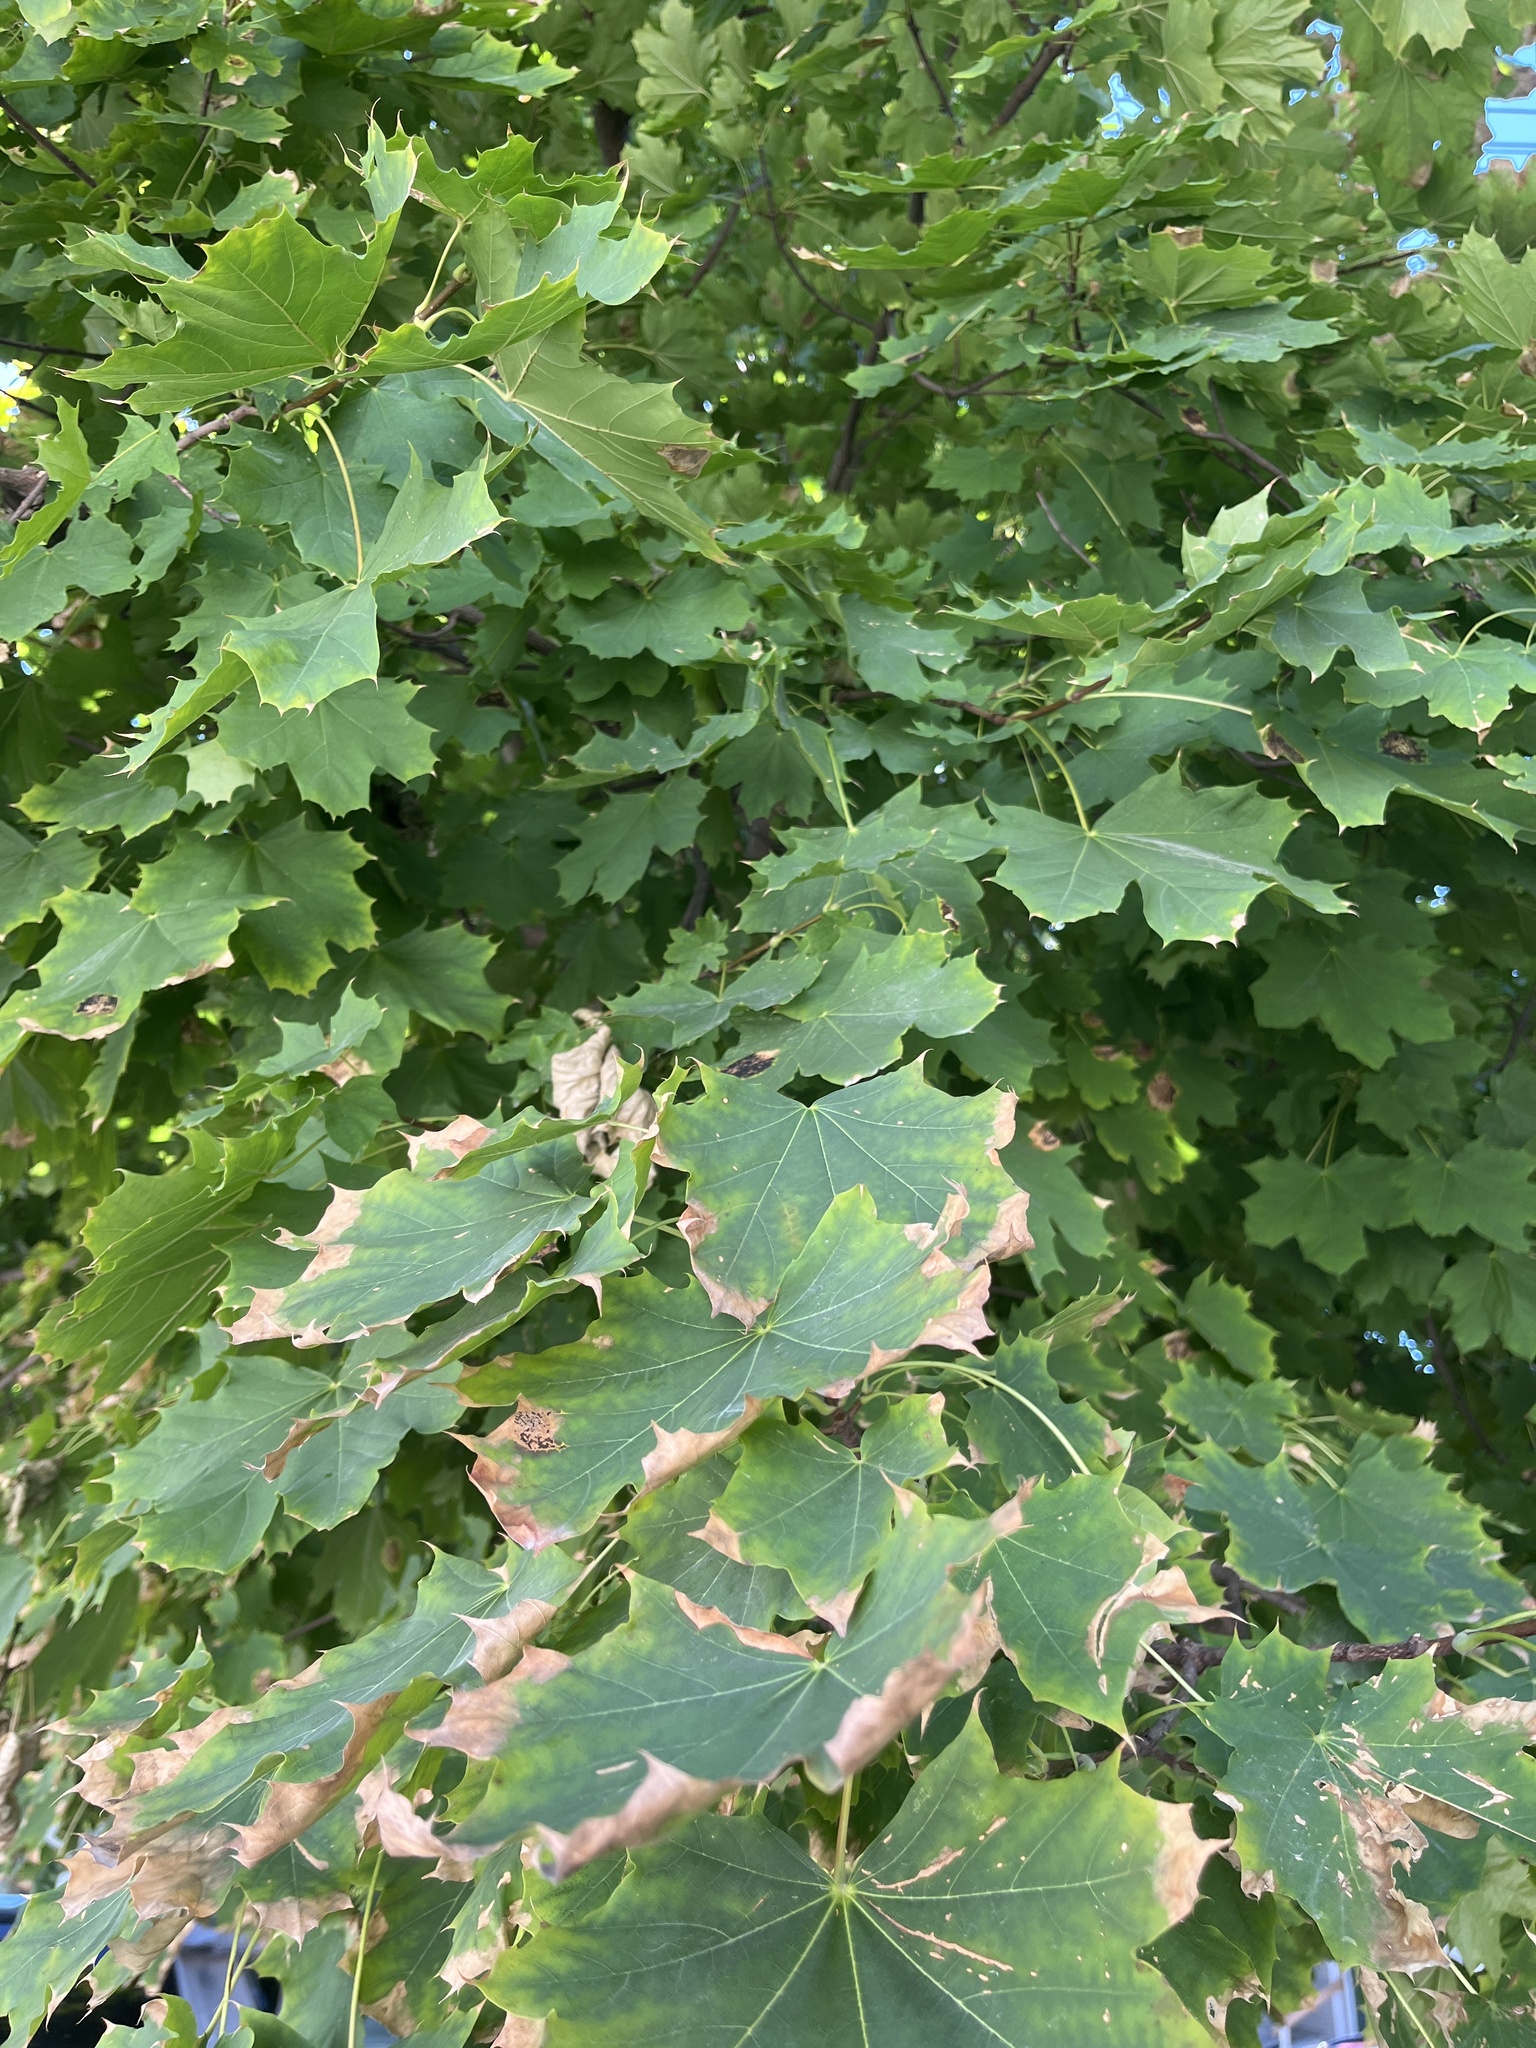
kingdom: Plantae
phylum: Tracheophyta
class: Magnoliopsida
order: Sapindales
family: Sapindaceae
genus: Acer
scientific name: Acer platanoides
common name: Norway maple
